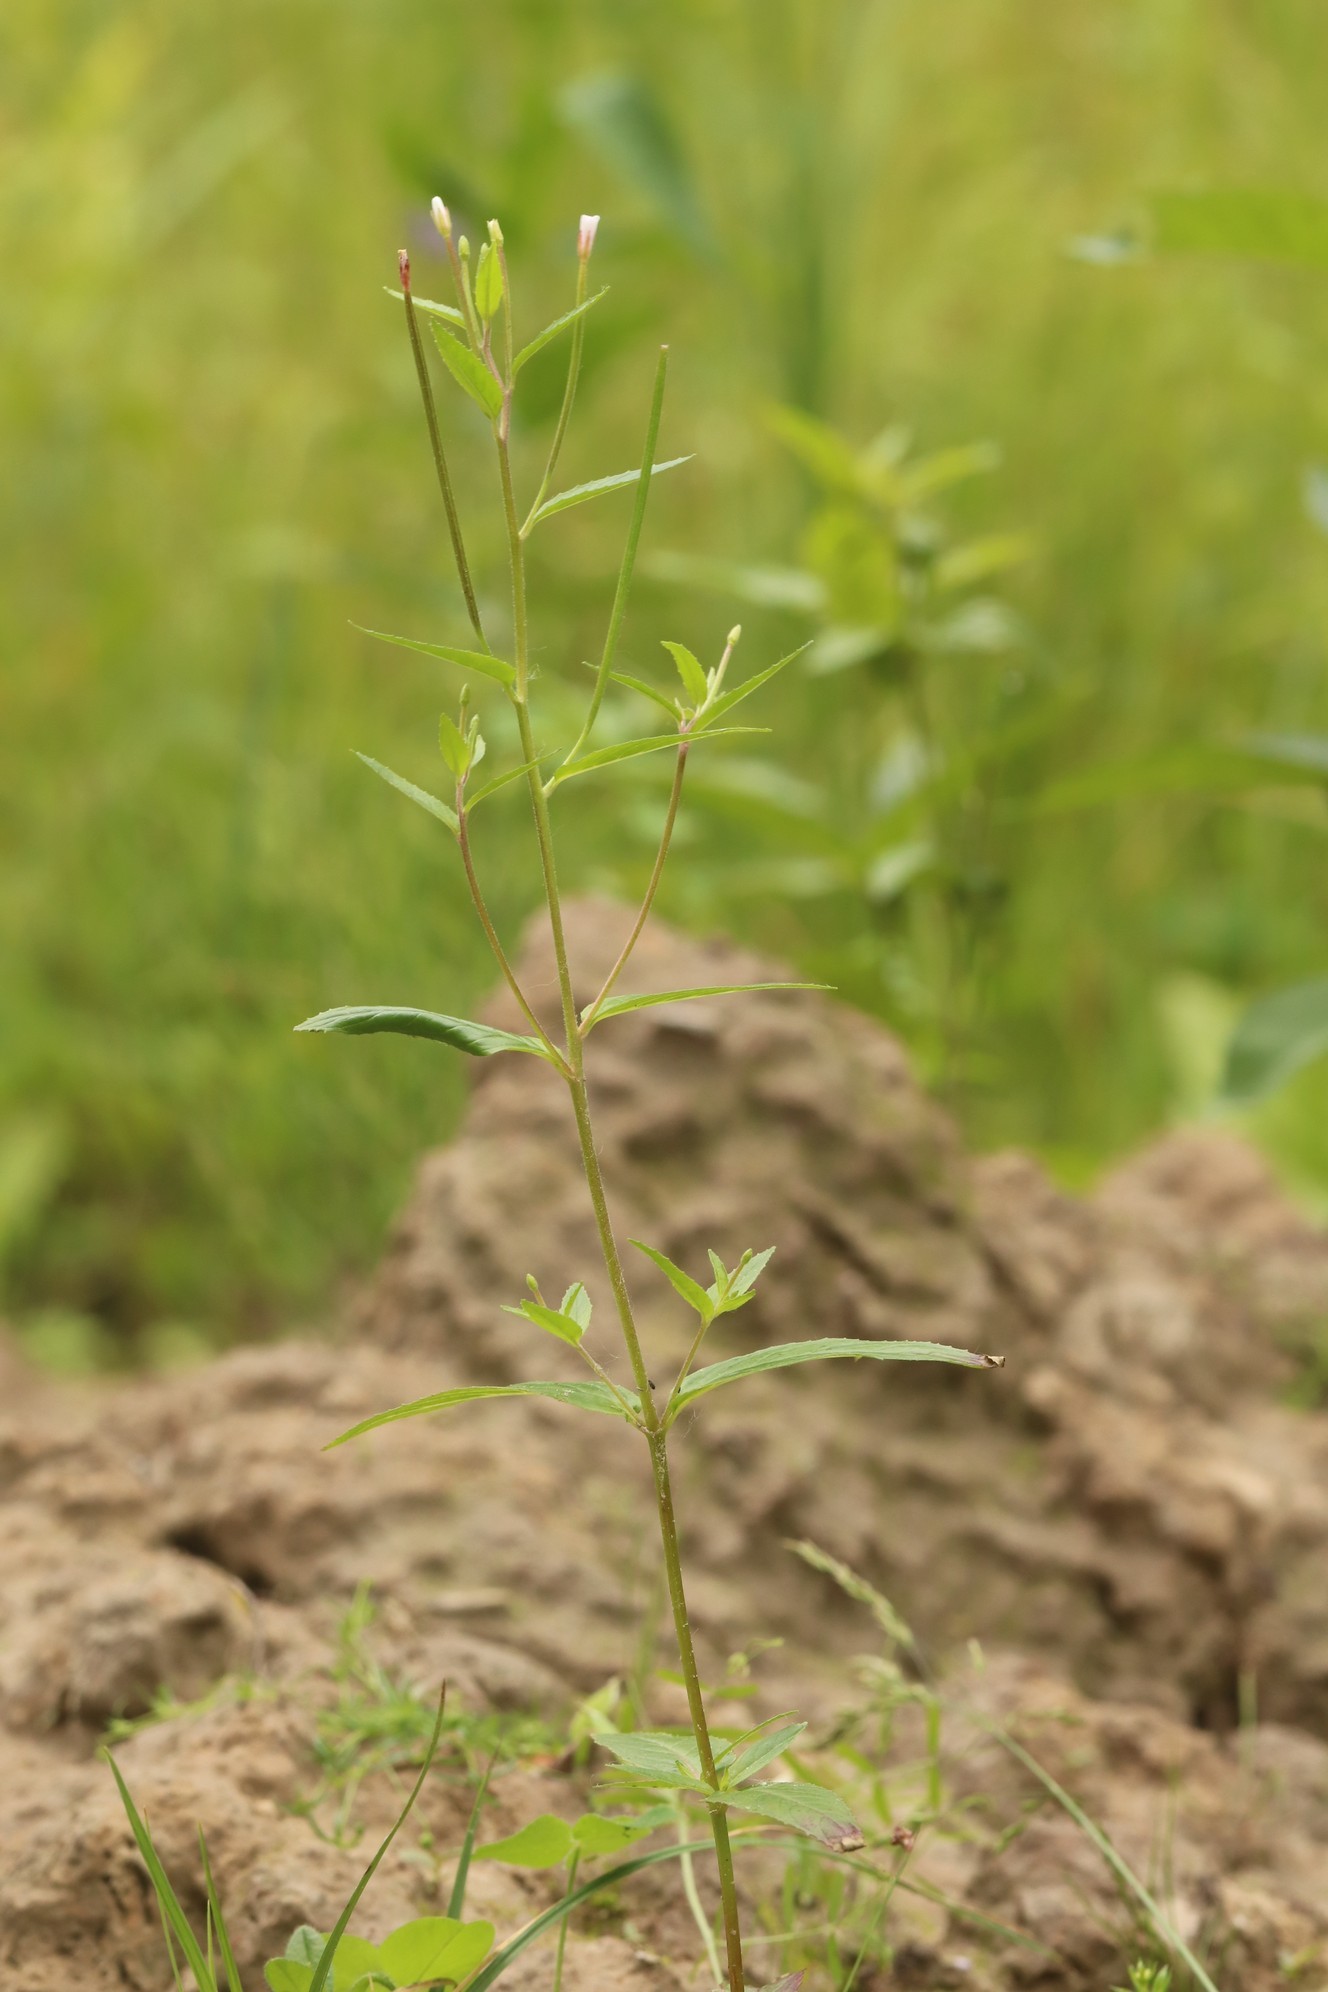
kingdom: Plantae
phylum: Tracheophyta
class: Magnoliopsida
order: Myrtales
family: Onagraceae
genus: Epilobium
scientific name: Epilobium pseudorubescens
